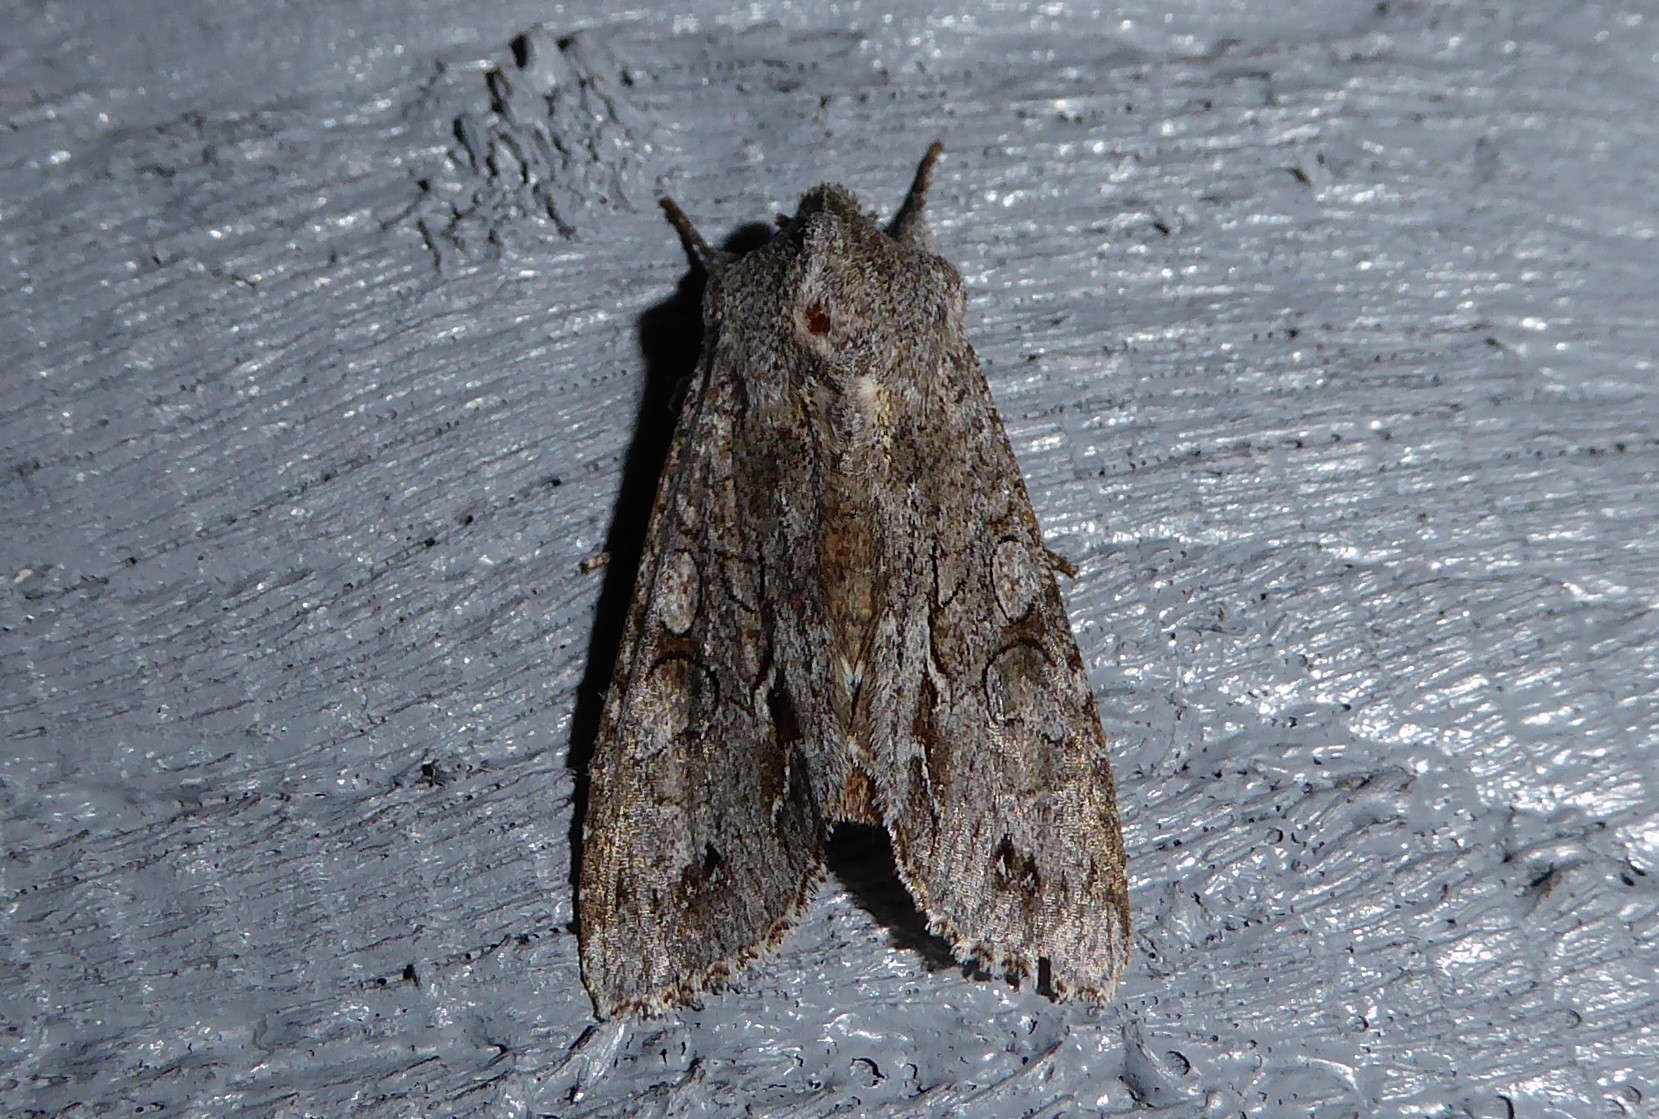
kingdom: Animalia
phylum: Arthropoda
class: Insecta
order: Lepidoptera
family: Noctuidae
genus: Ichneutica
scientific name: Ichneutica
